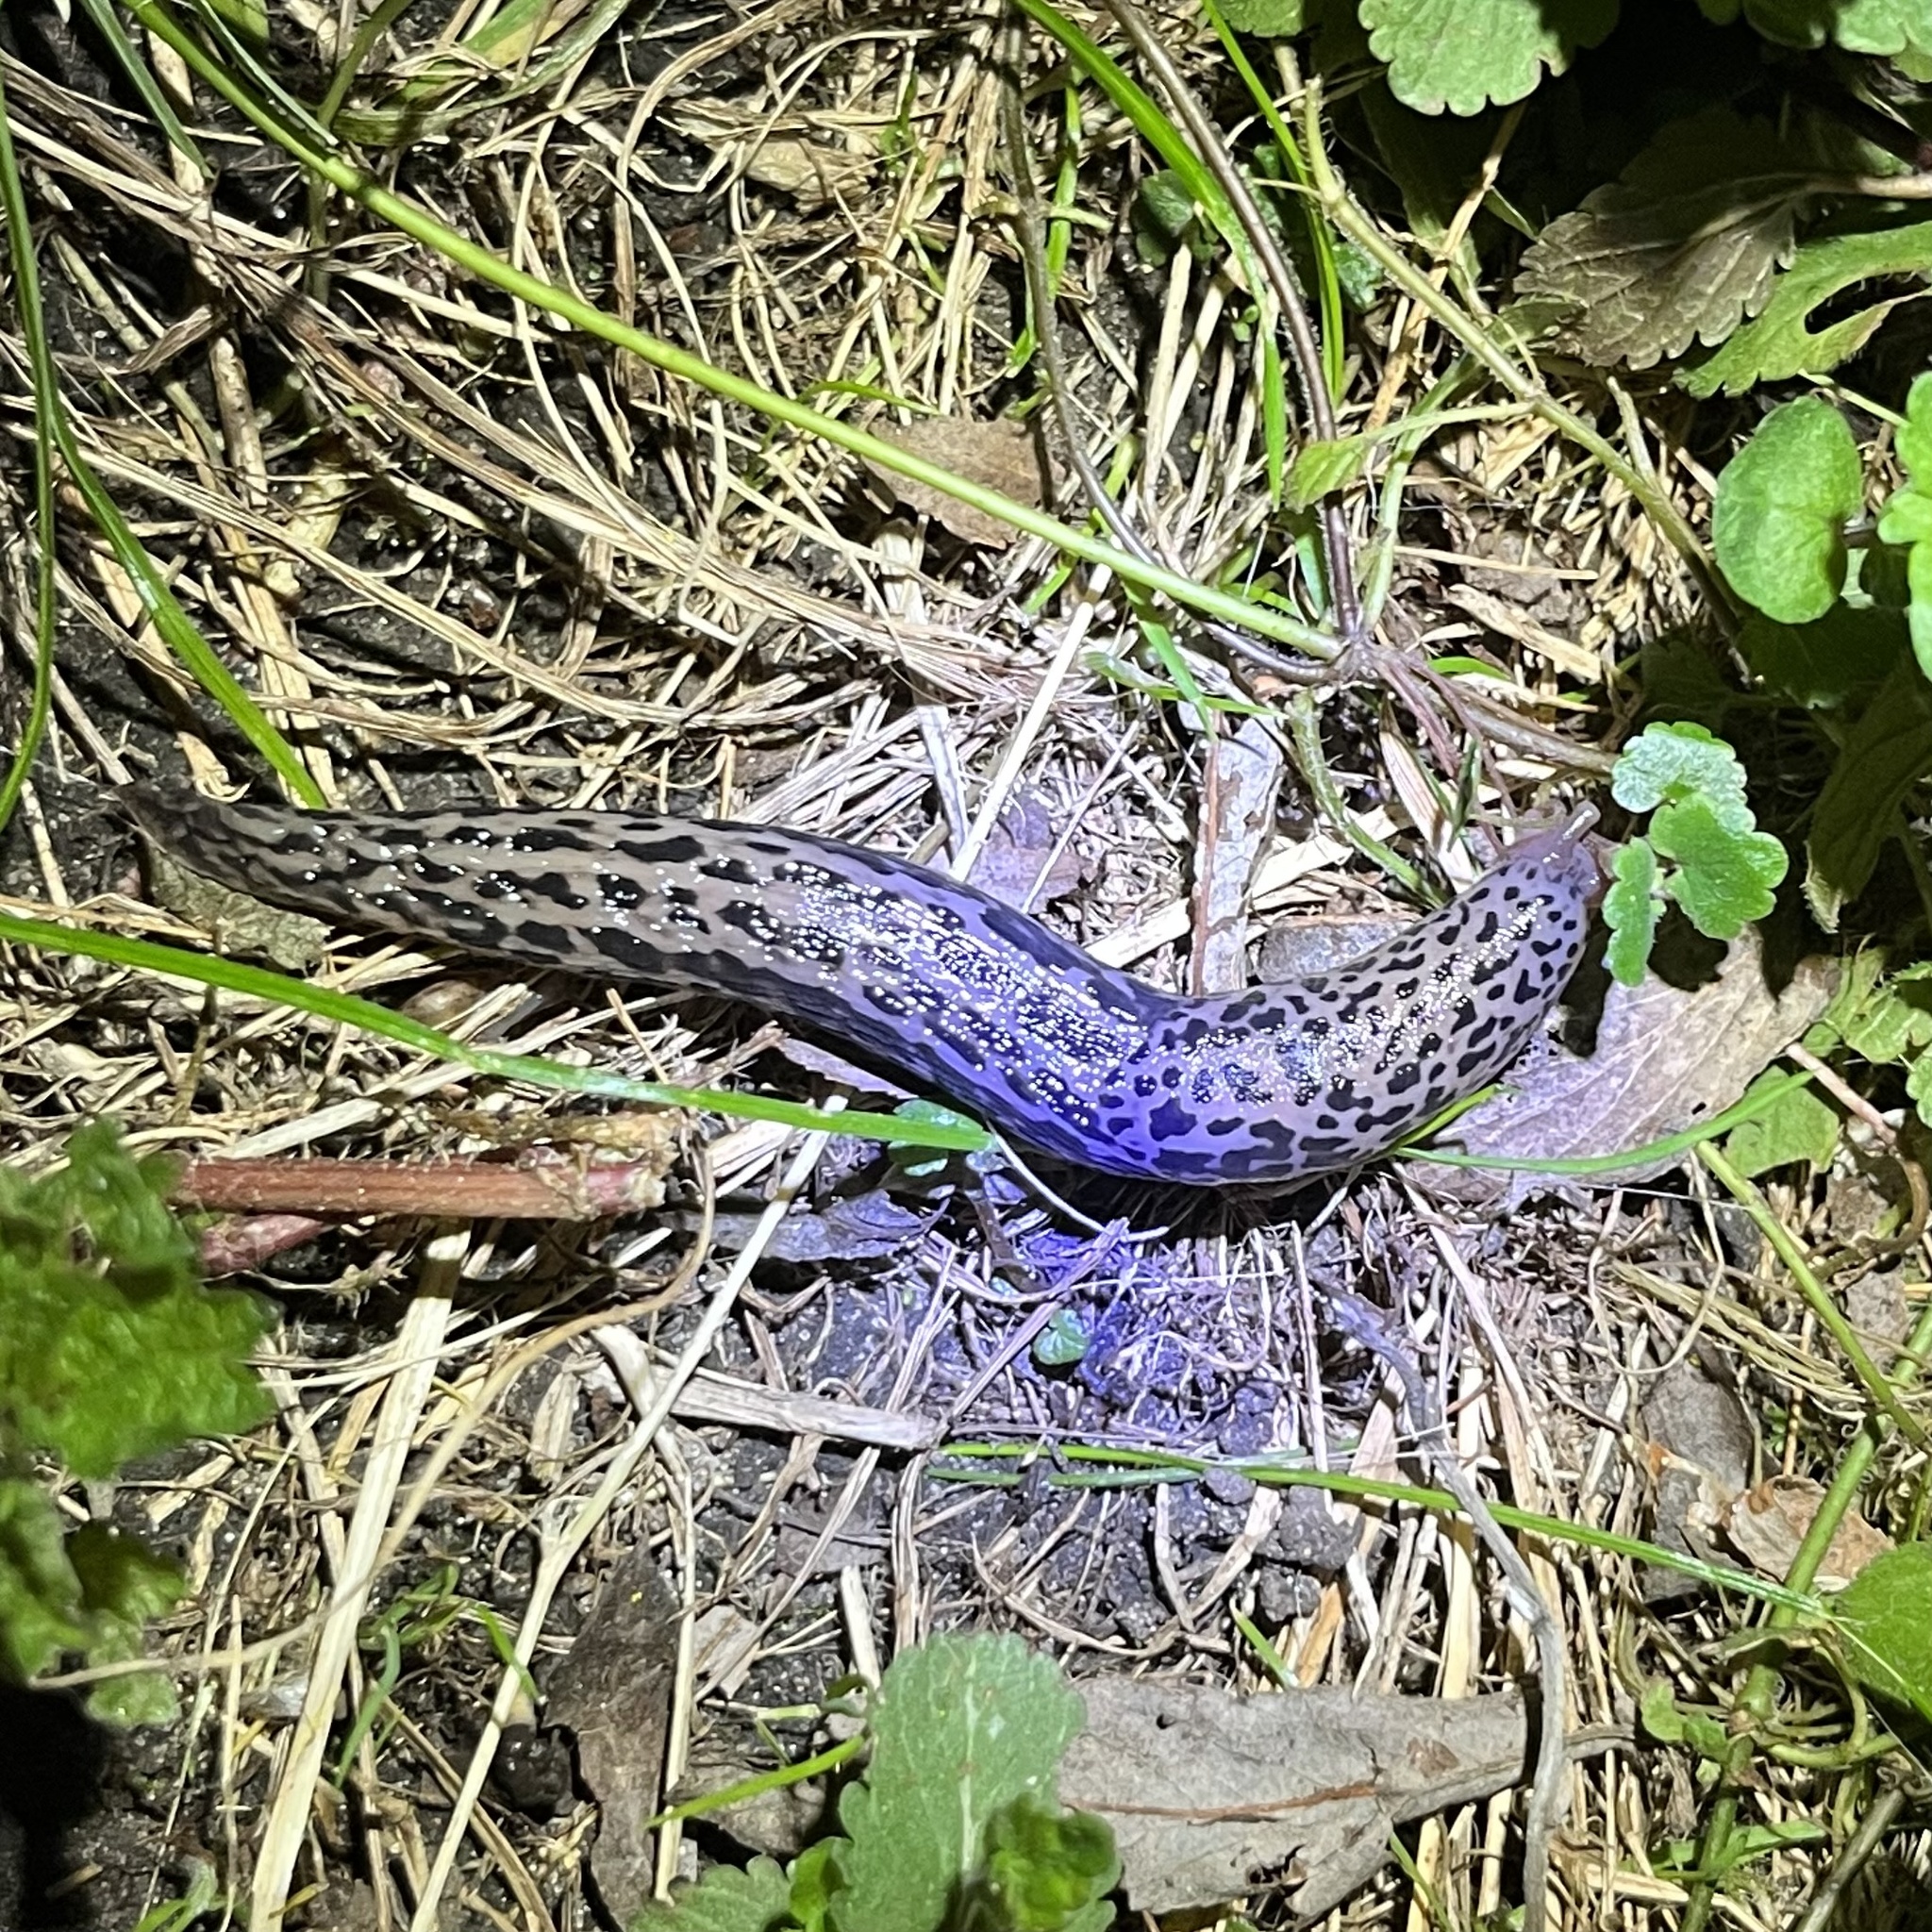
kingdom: Animalia
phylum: Mollusca
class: Gastropoda
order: Stylommatophora
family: Limacidae
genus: Limax
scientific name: Limax maximus
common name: Great grey slug
